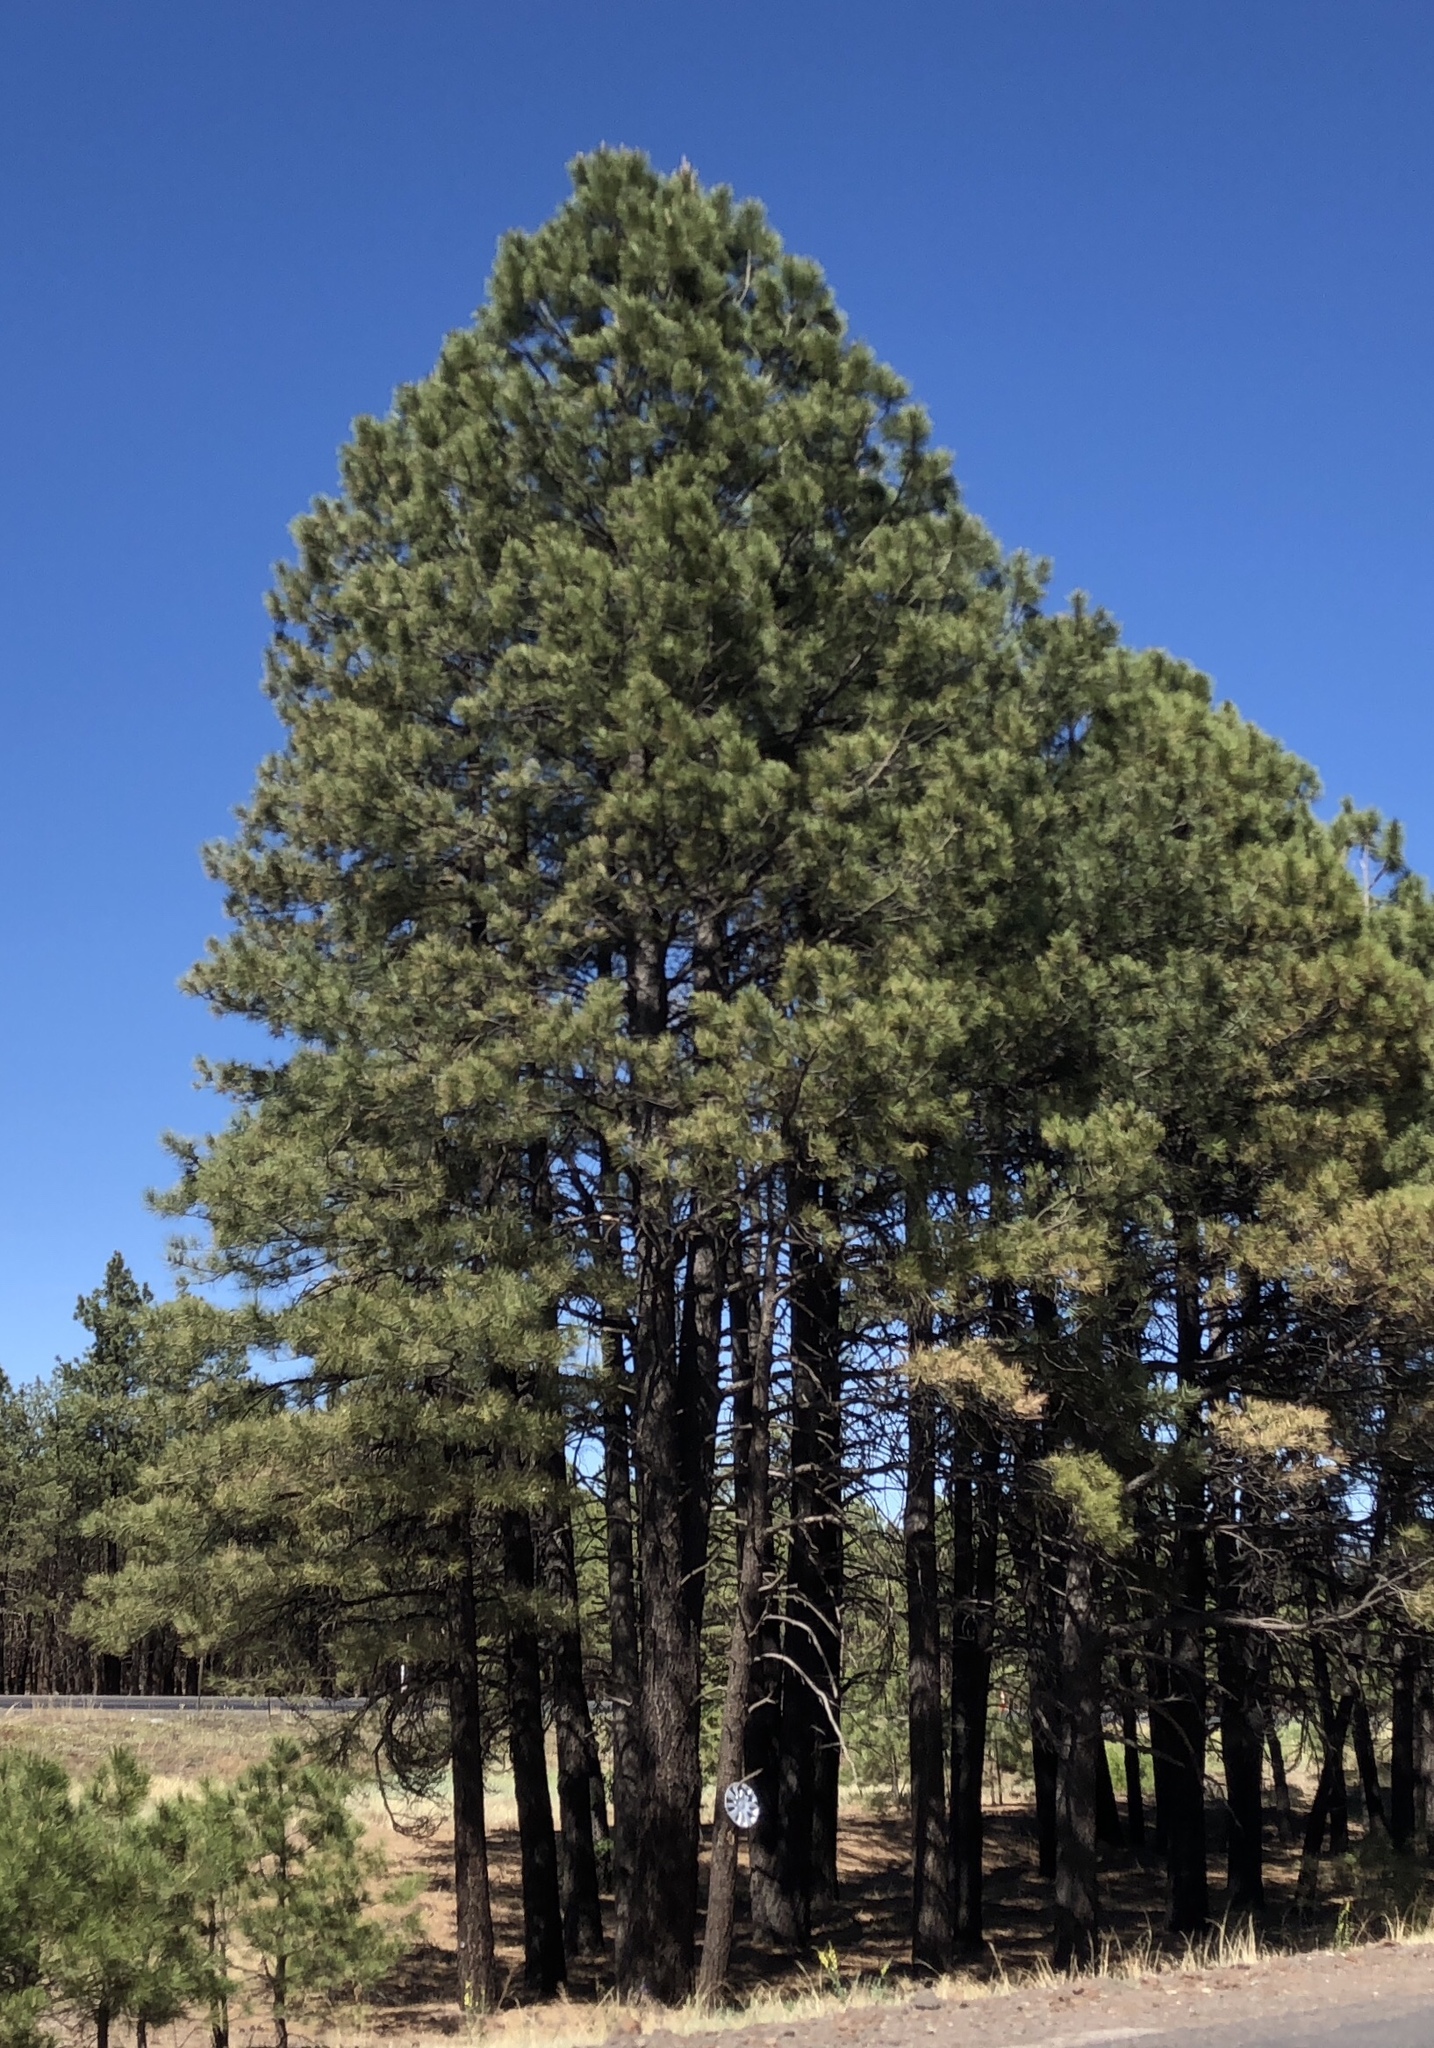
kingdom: Plantae
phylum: Tracheophyta
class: Pinopsida
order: Pinales
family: Pinaceae
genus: Pinus
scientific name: Pinus ponderosa
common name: Western yellow-pine
